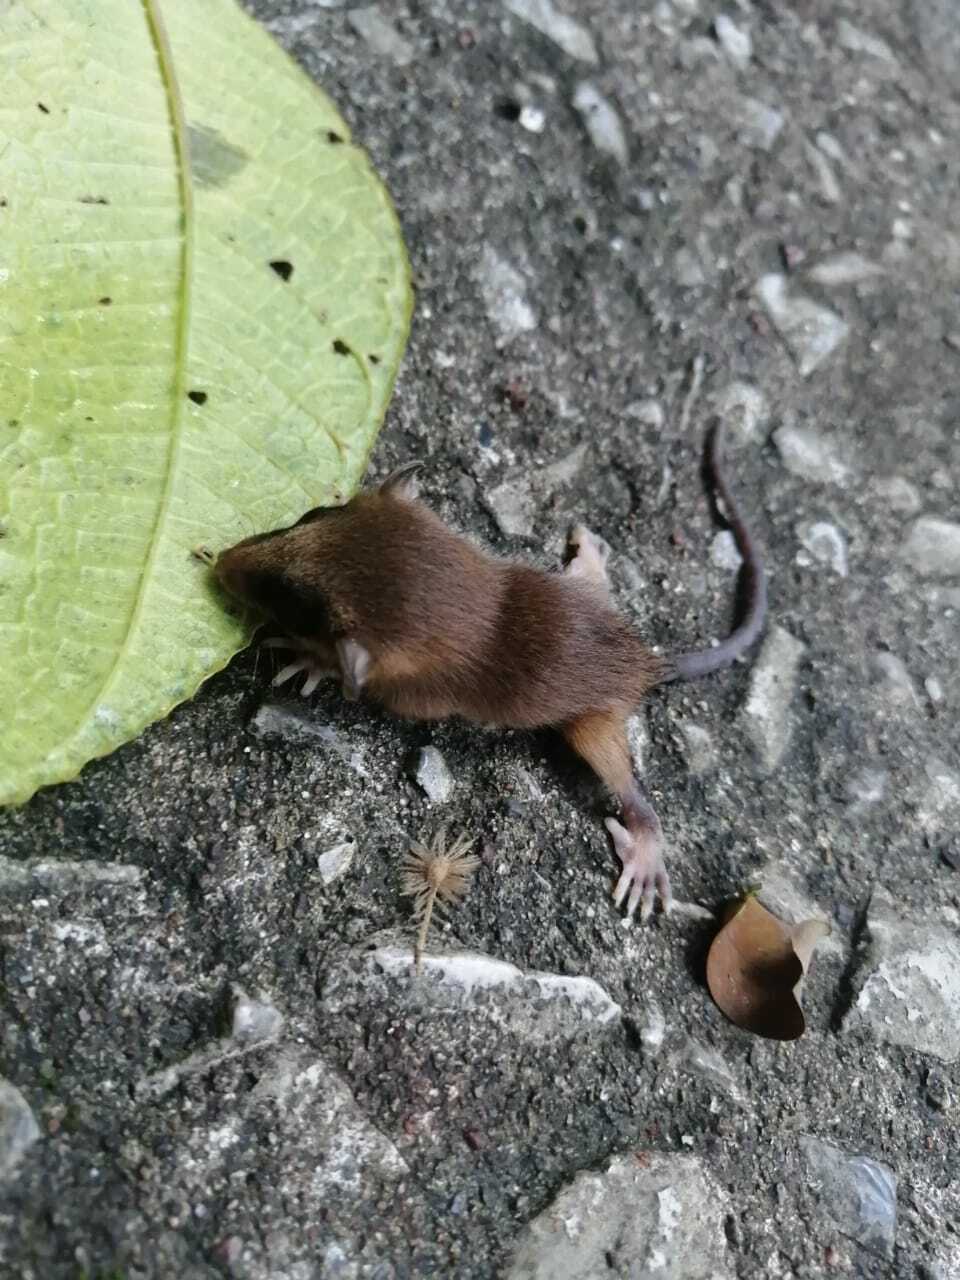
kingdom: Animalia
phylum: Chordata
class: Mammalia
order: Didelphimorphia
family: Didelphidae
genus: Marmosa
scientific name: Marmosa mexicana
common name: Mexican mouse opossum
